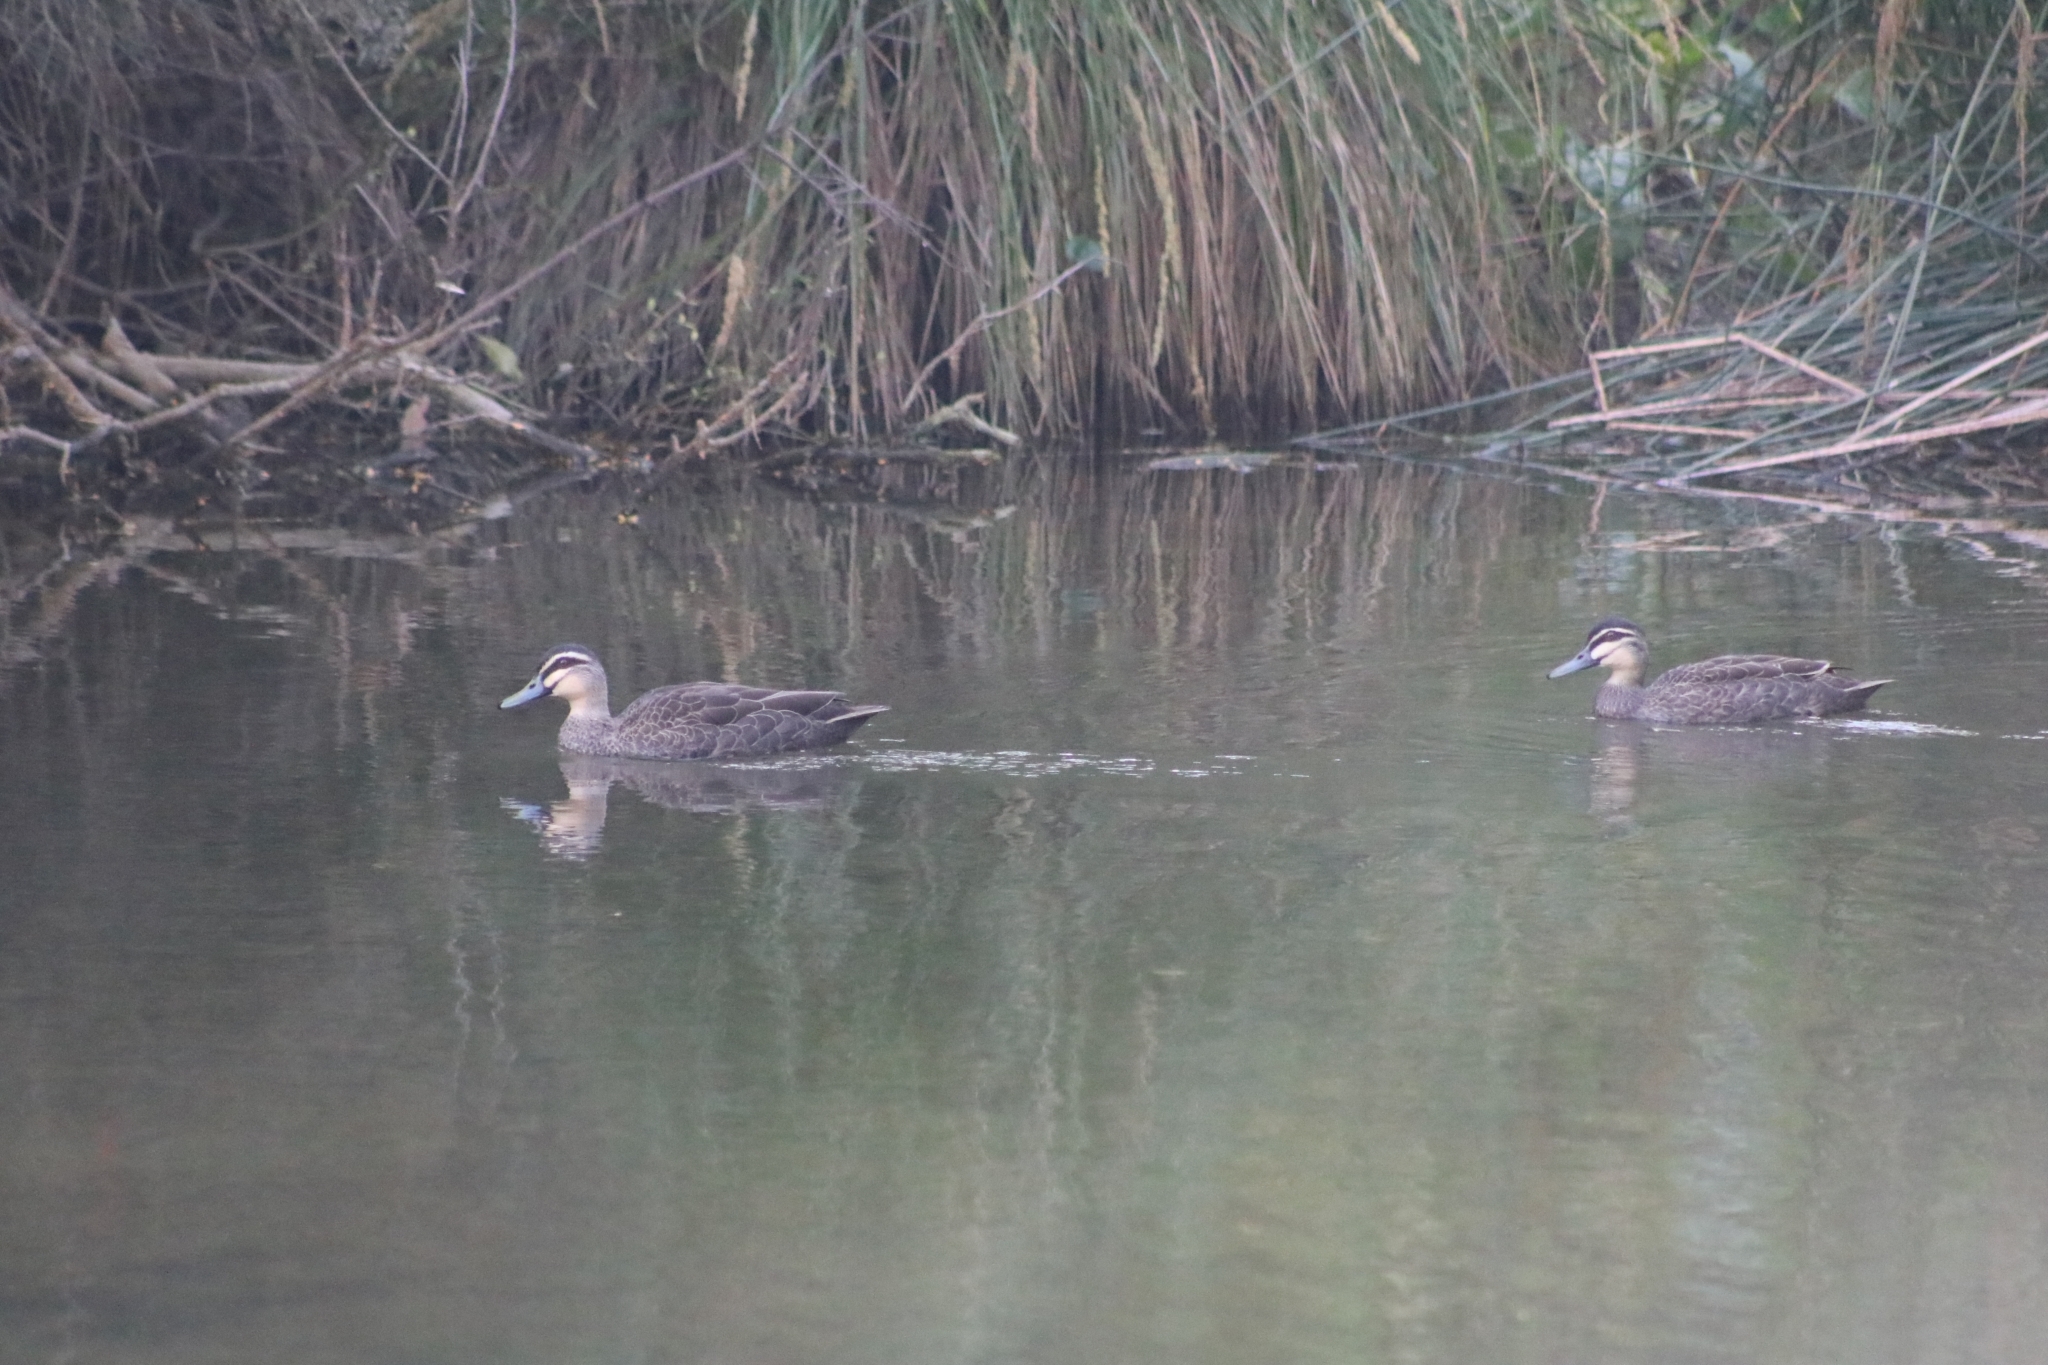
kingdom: Animalia
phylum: Chordata
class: Aves
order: Anseriformes
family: Anatidae
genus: Anas
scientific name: Anas superciliosa
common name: Pacific black duck
